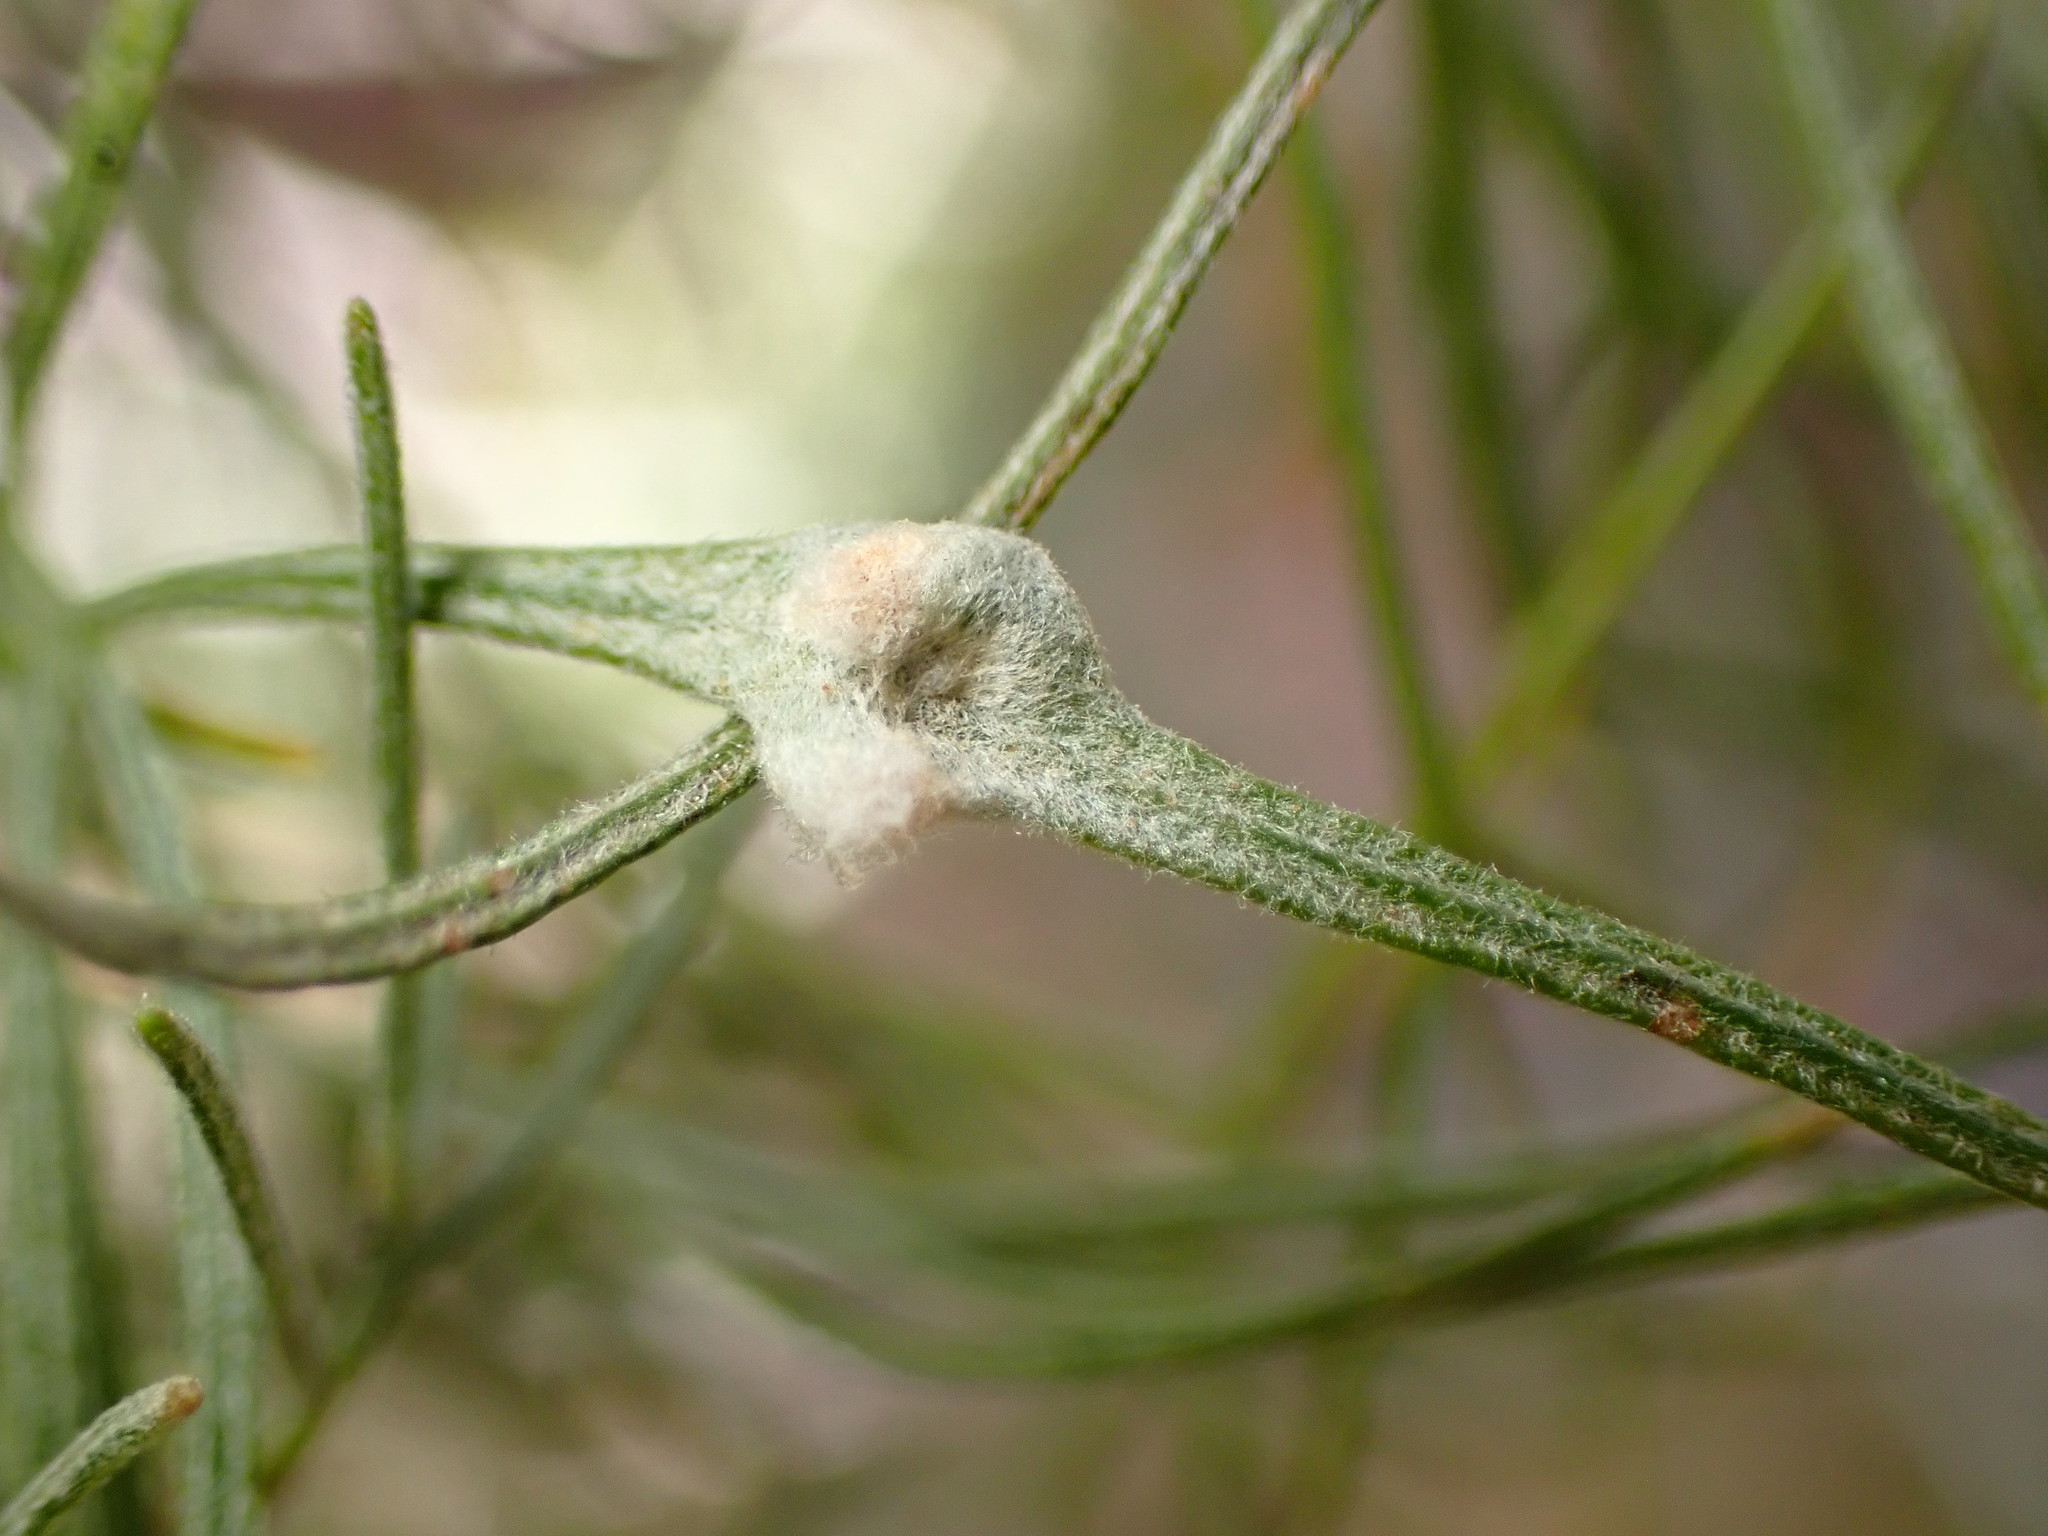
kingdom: Animalia
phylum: Arthropoda
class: Arachnida
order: Trombidiformes
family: Eriophyidae
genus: Aceria
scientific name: Aceria
